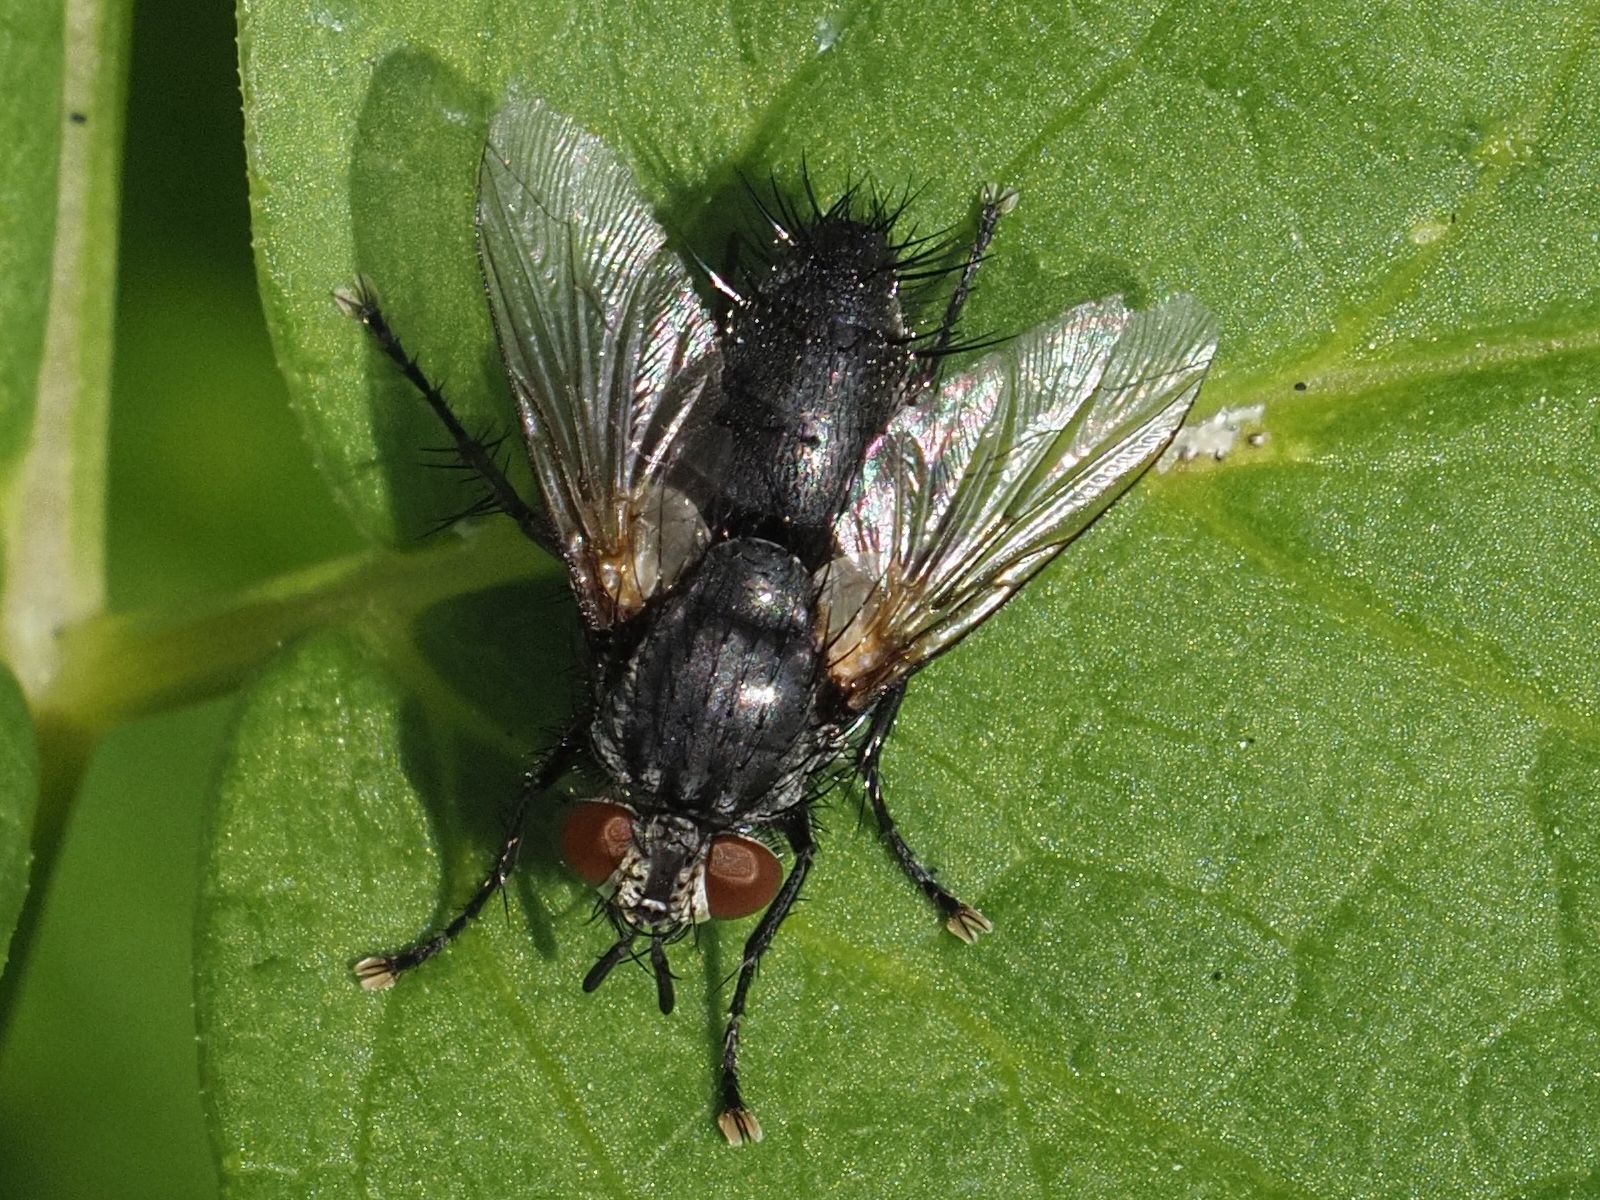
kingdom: Animalia
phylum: Arthropoda
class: Insecta
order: Diptera
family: Tachinidae
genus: Voria
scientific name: Voria ruralis
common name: Parasitic fly
